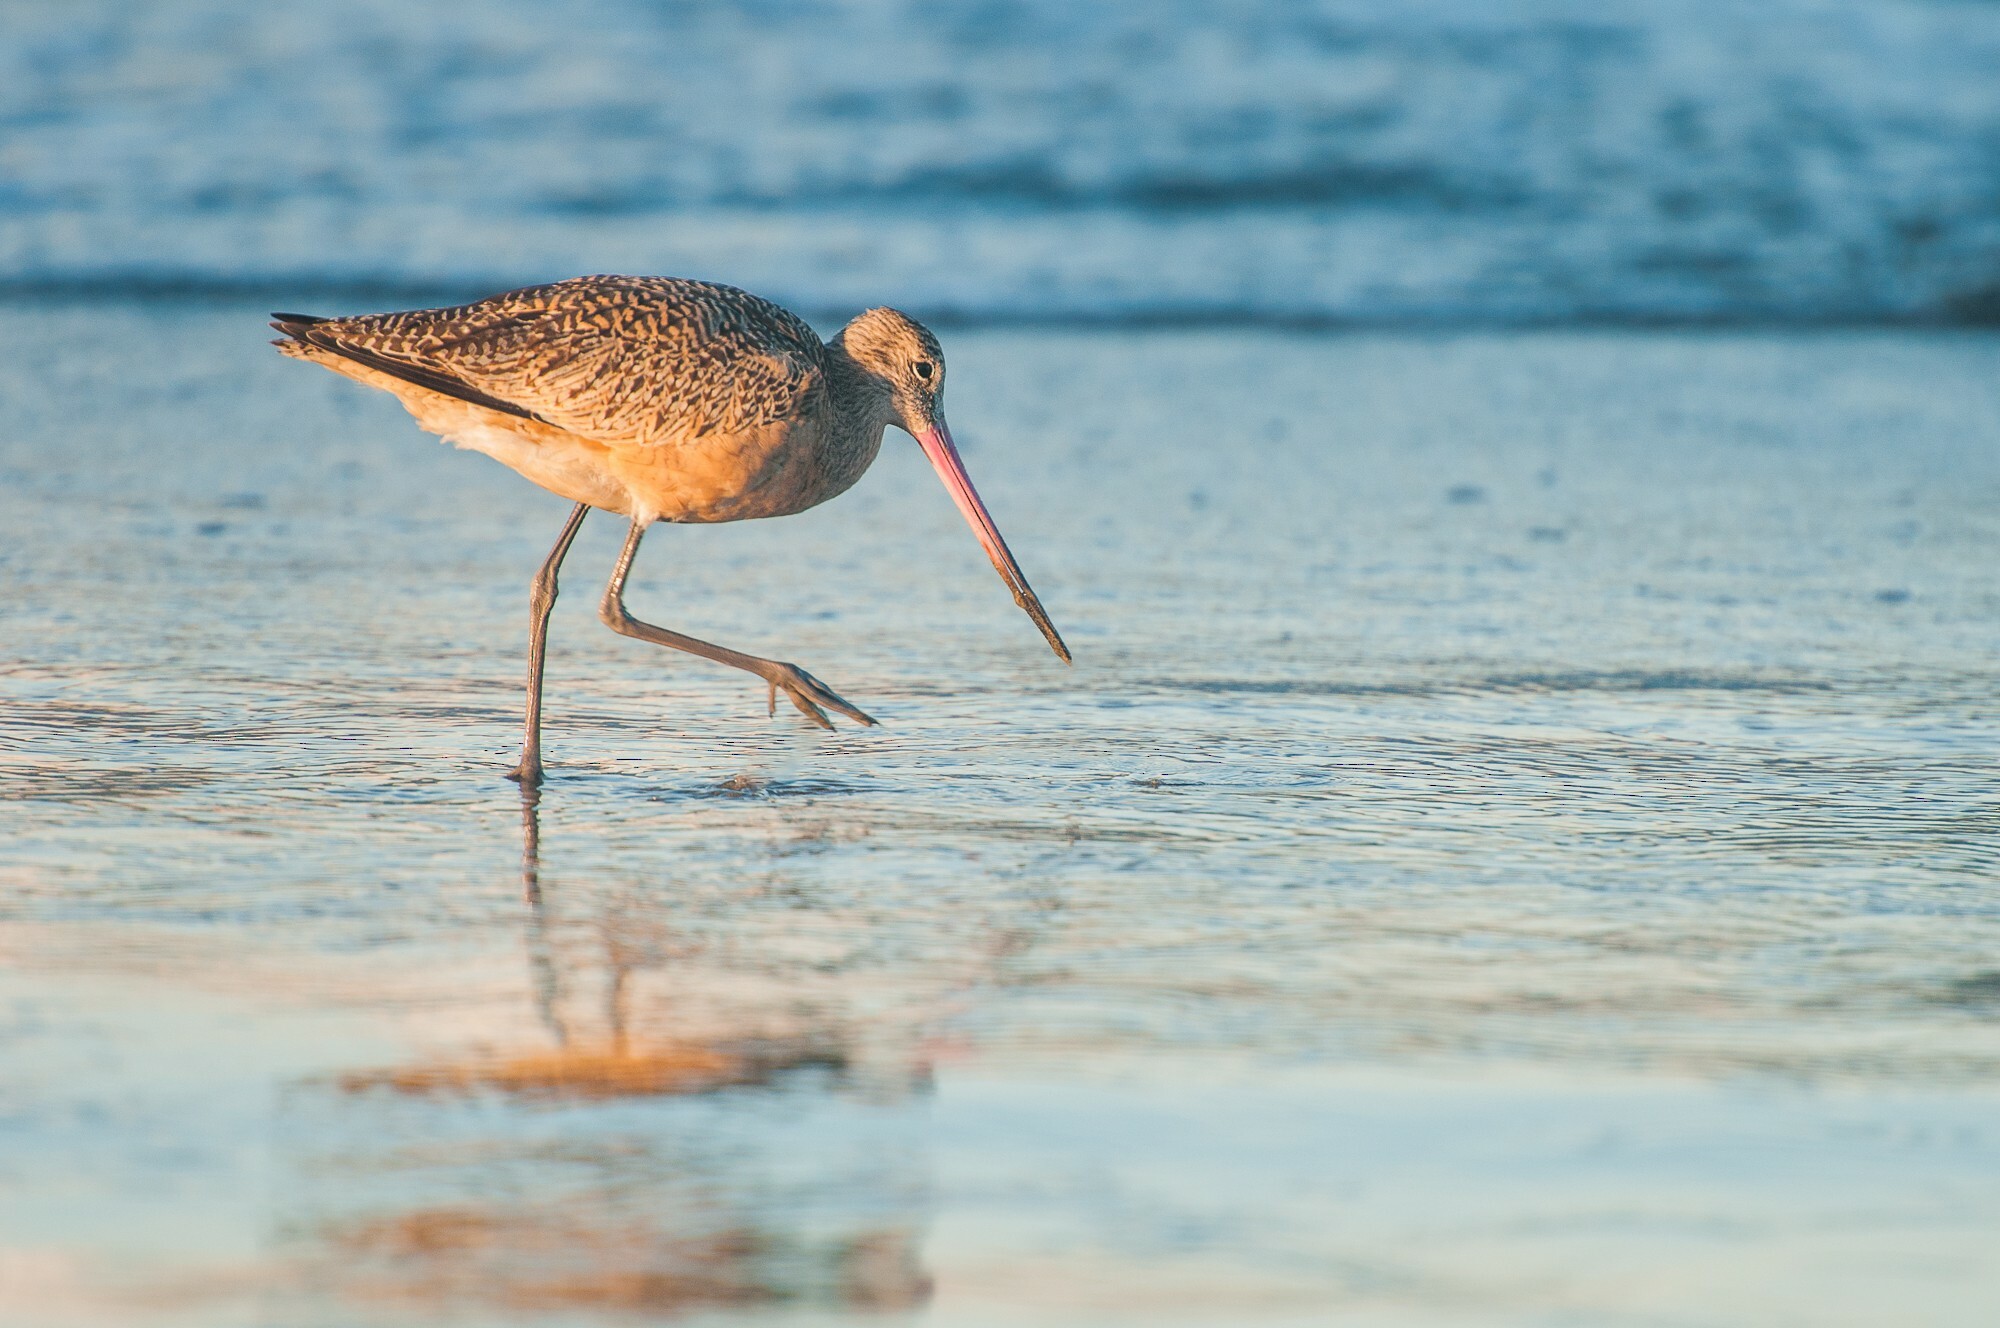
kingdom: Animalia
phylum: Chordata
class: Aves
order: Charadriiformes
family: Scolopacidae
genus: Limosa
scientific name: Limosa fedoa
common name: Marbled godwit
